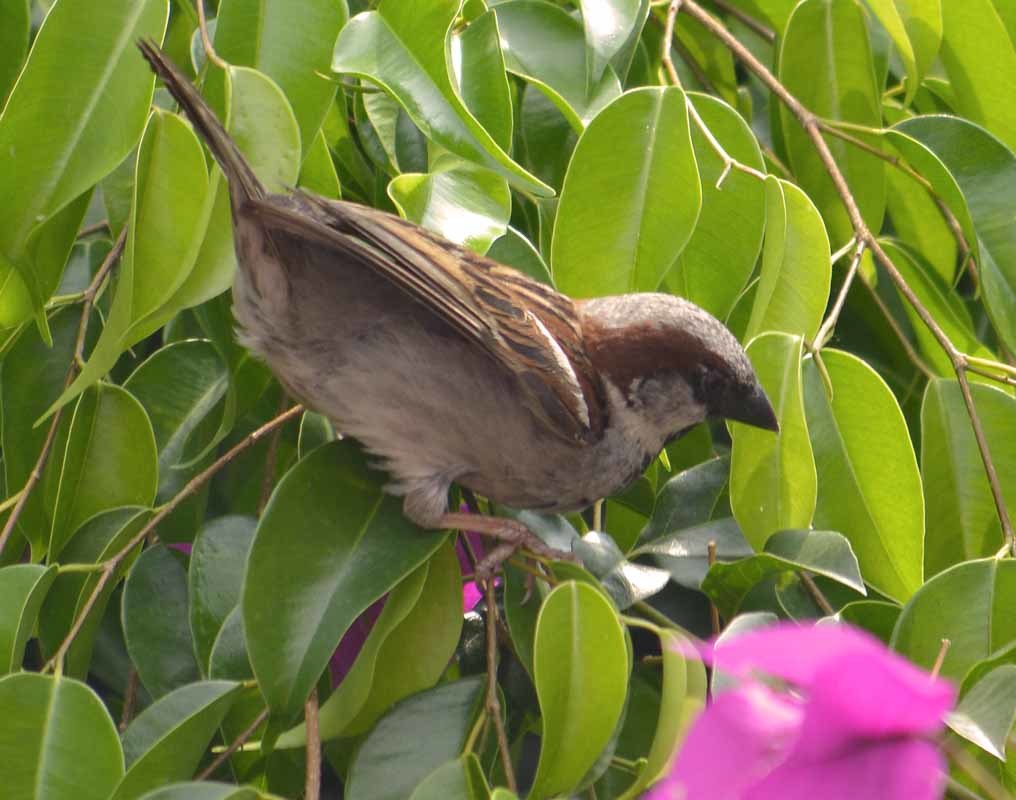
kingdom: Animalia
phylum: Chordata
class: Aves
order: Passeriformes
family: Passeridae
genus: Passer
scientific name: Passer domesticus
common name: House sparrow
